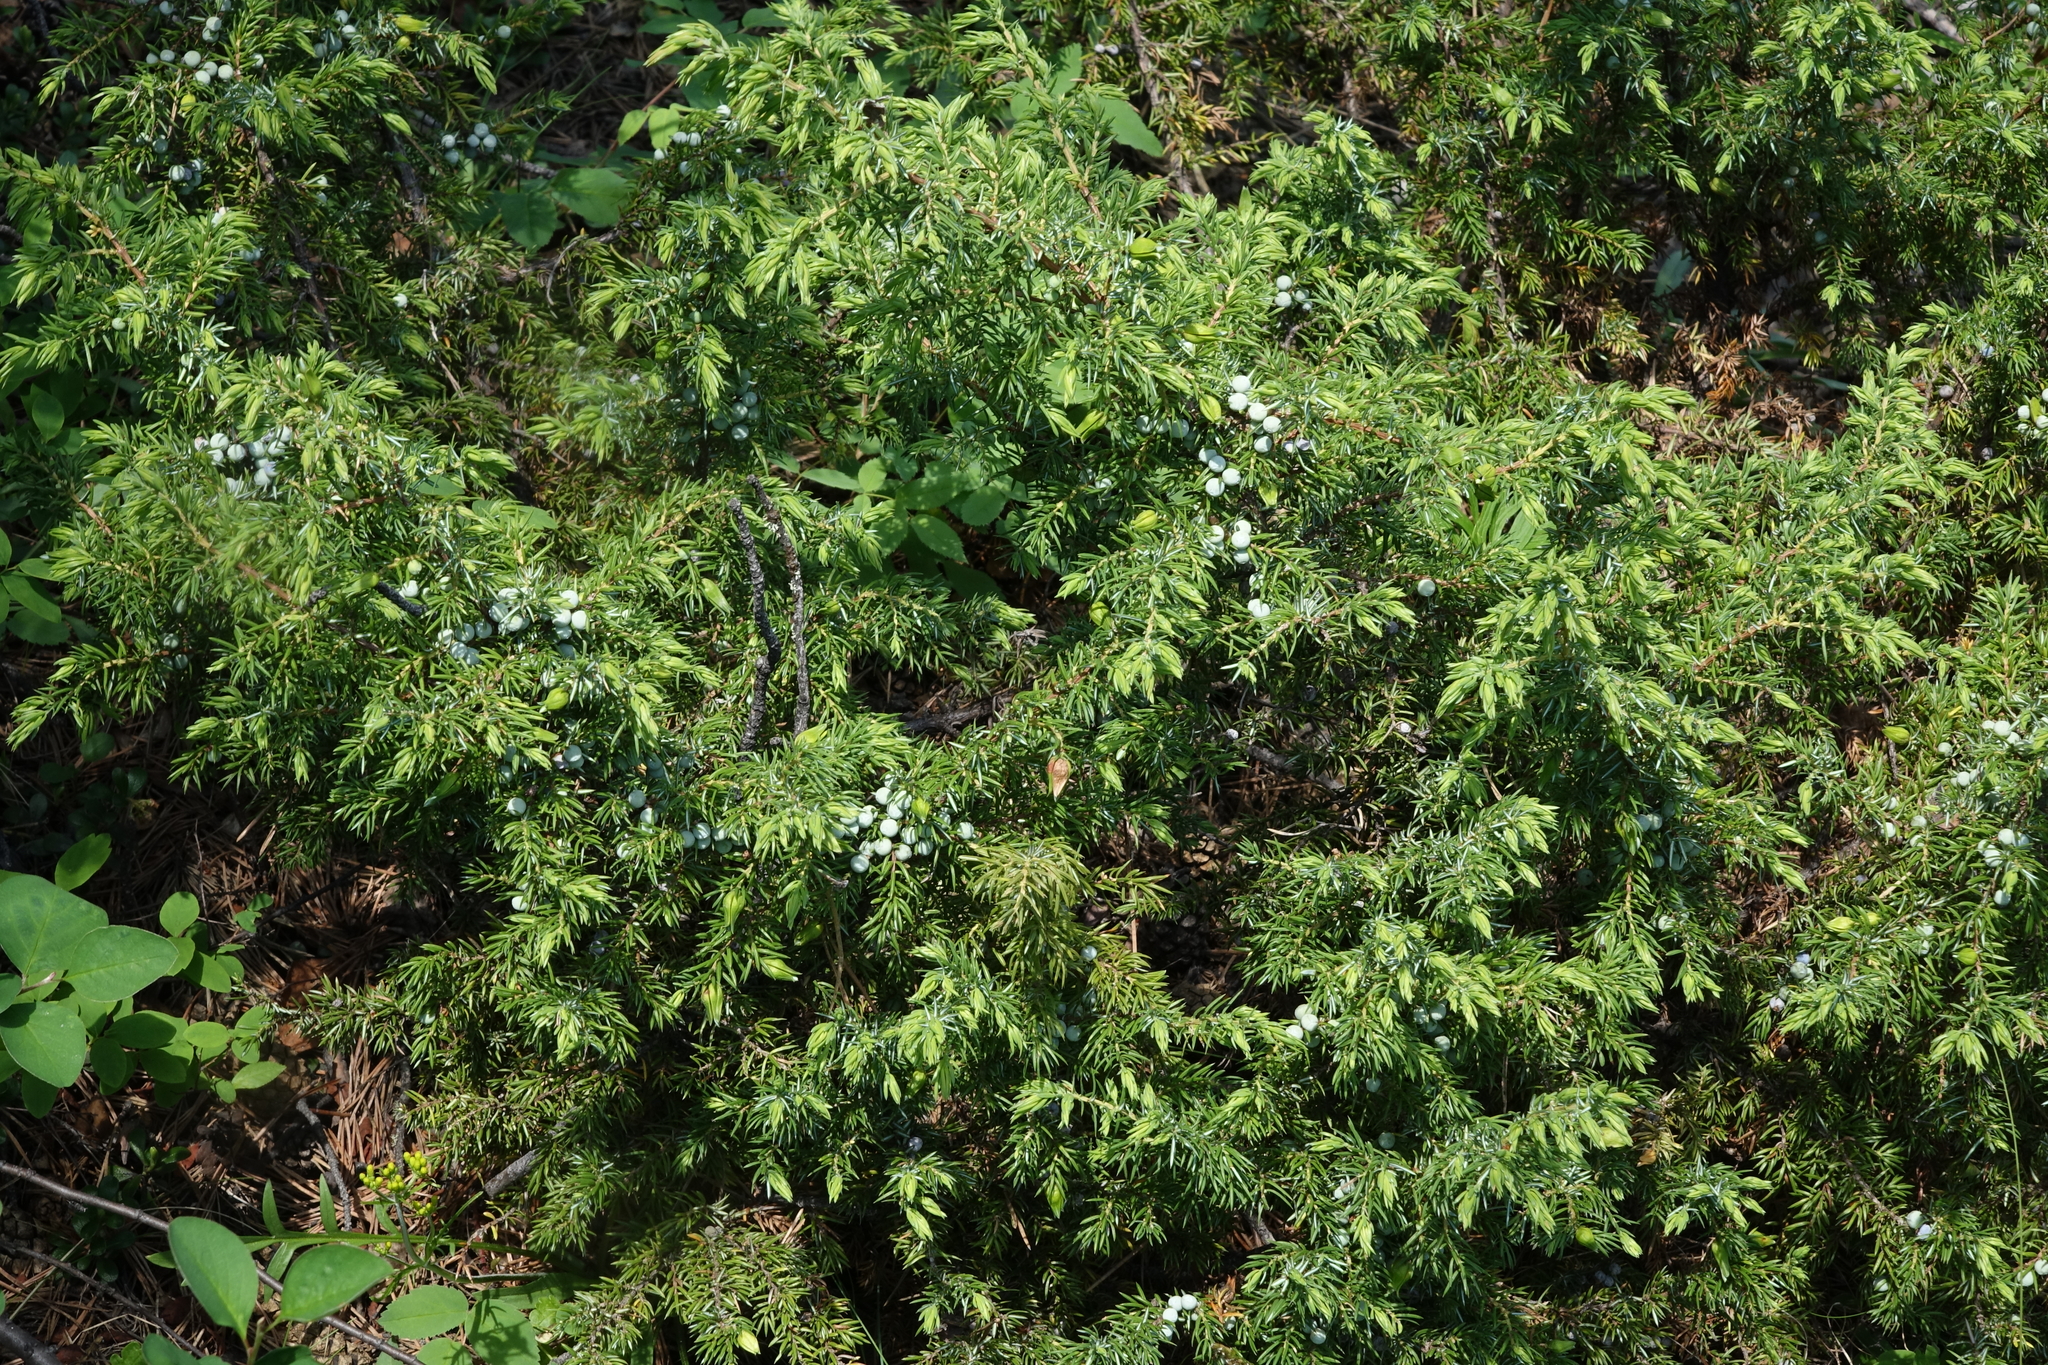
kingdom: Plantae
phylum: Tracheophyta
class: Pinopsida
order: Pinales
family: Cupressaceae
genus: Juniperus
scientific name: Juniperus communis
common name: Common juniper
